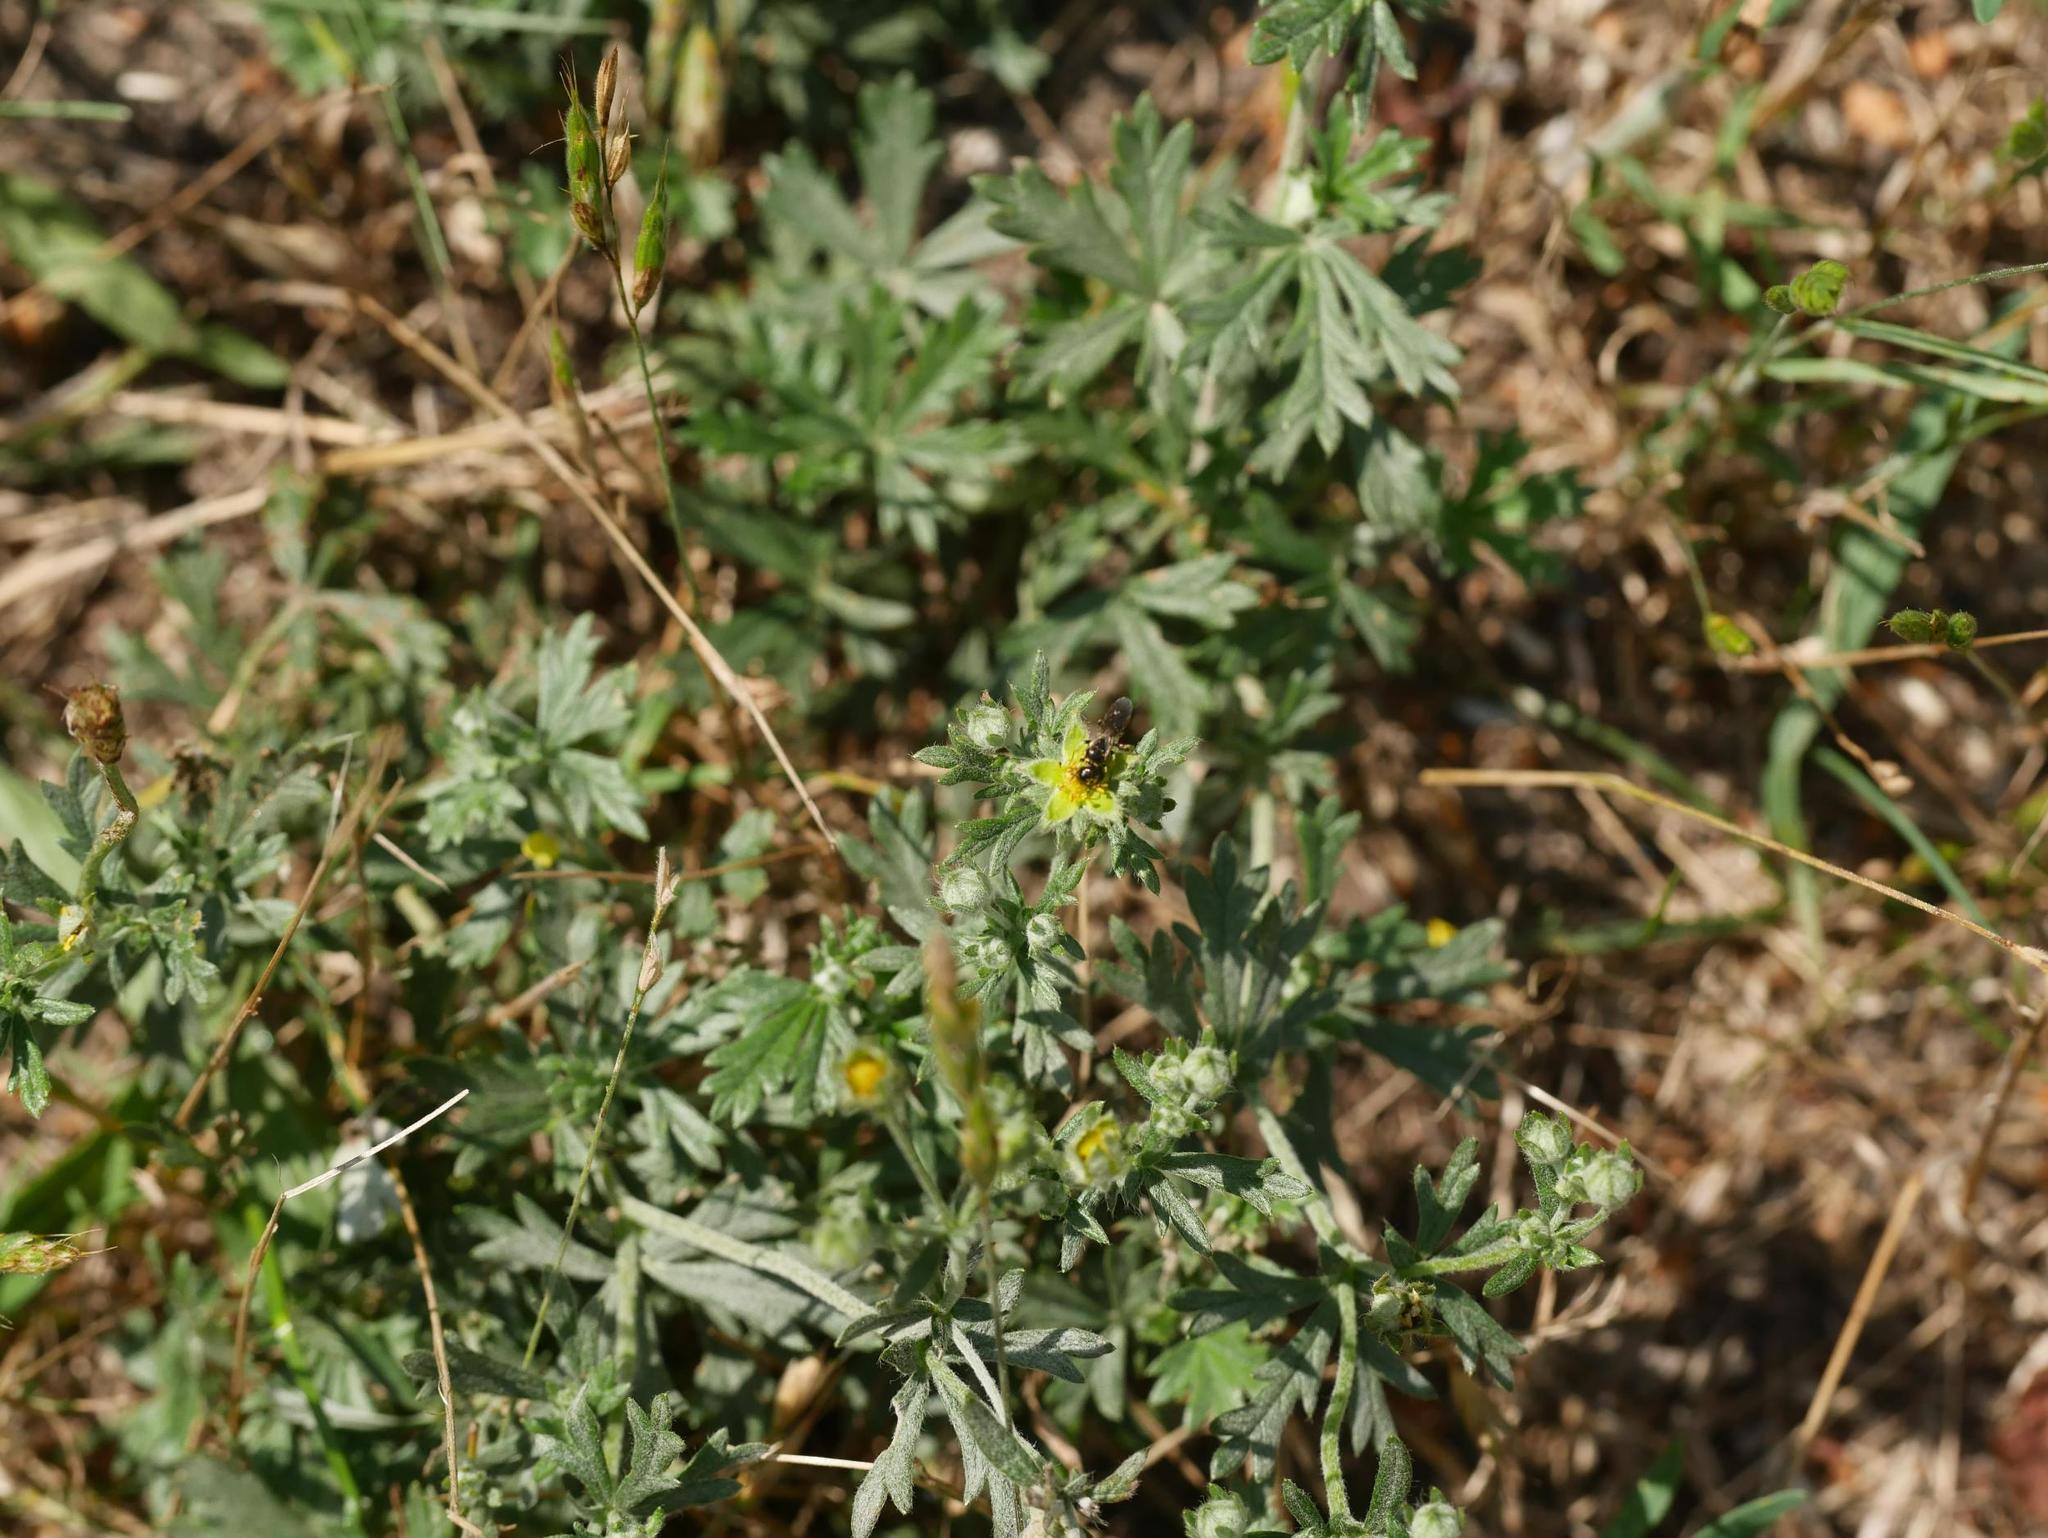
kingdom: Plantae
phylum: Tracheophyta
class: Magnoliopsida
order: Rosales
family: Rosaceae
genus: Potentilla
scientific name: Potentilla argentea
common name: Hoary cinquefoil
